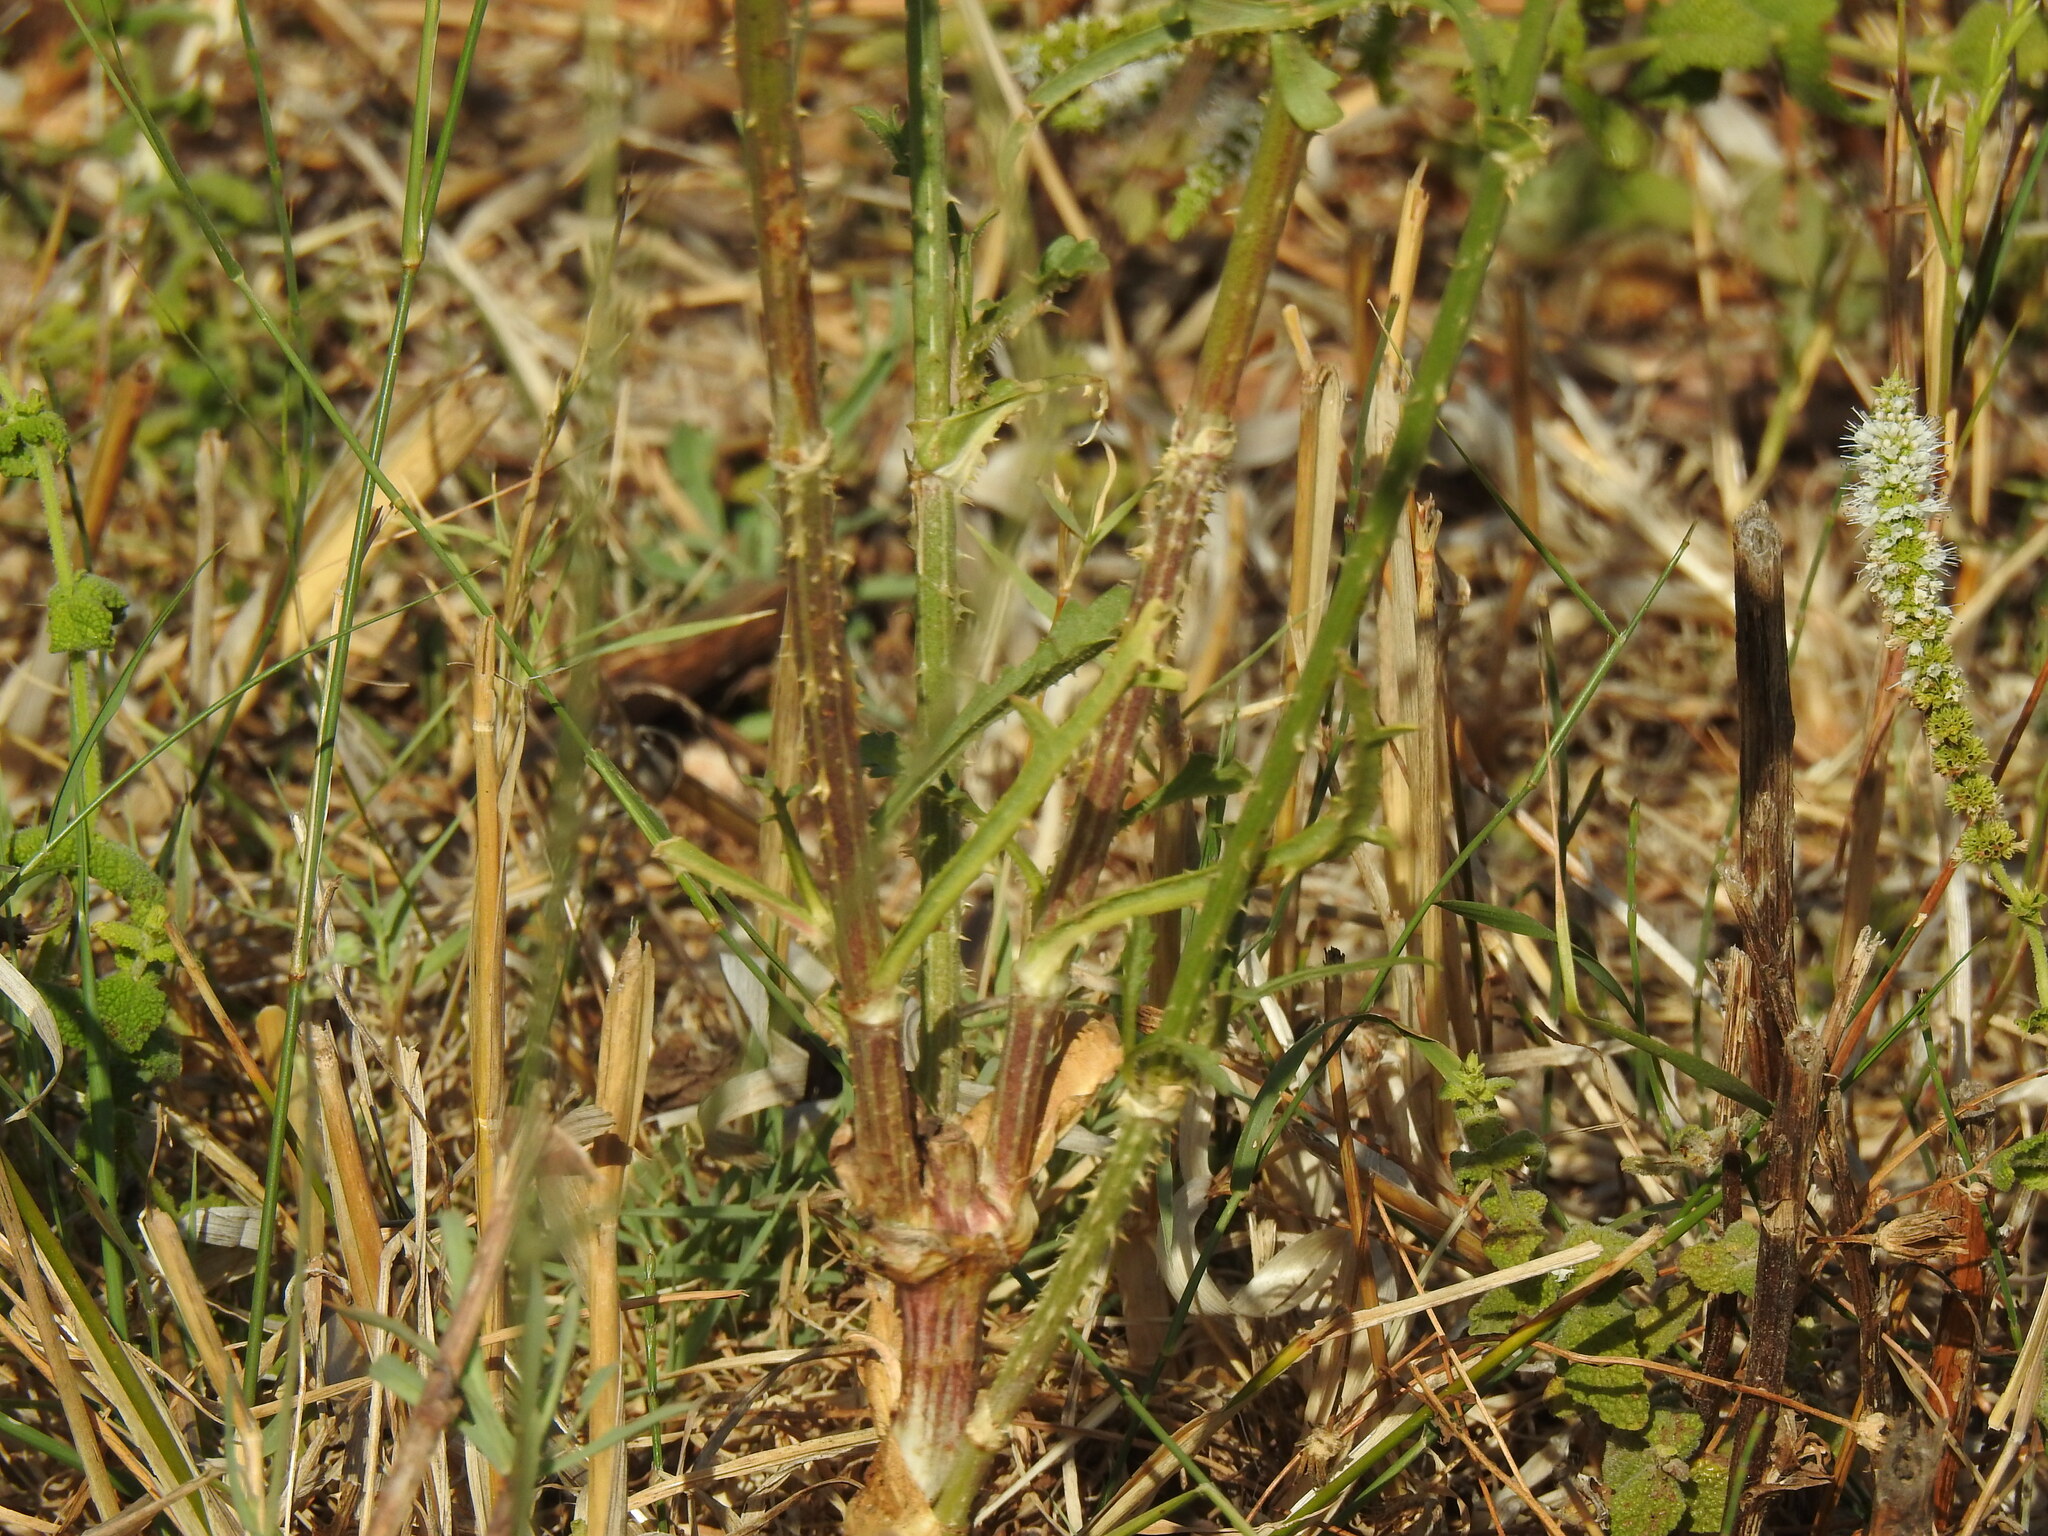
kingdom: Plantae
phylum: Tracheophyta
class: Magnoliopsida
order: Dipsacales
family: Caprifoliaceae
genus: Dipsacus
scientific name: Dipsacus comosus
